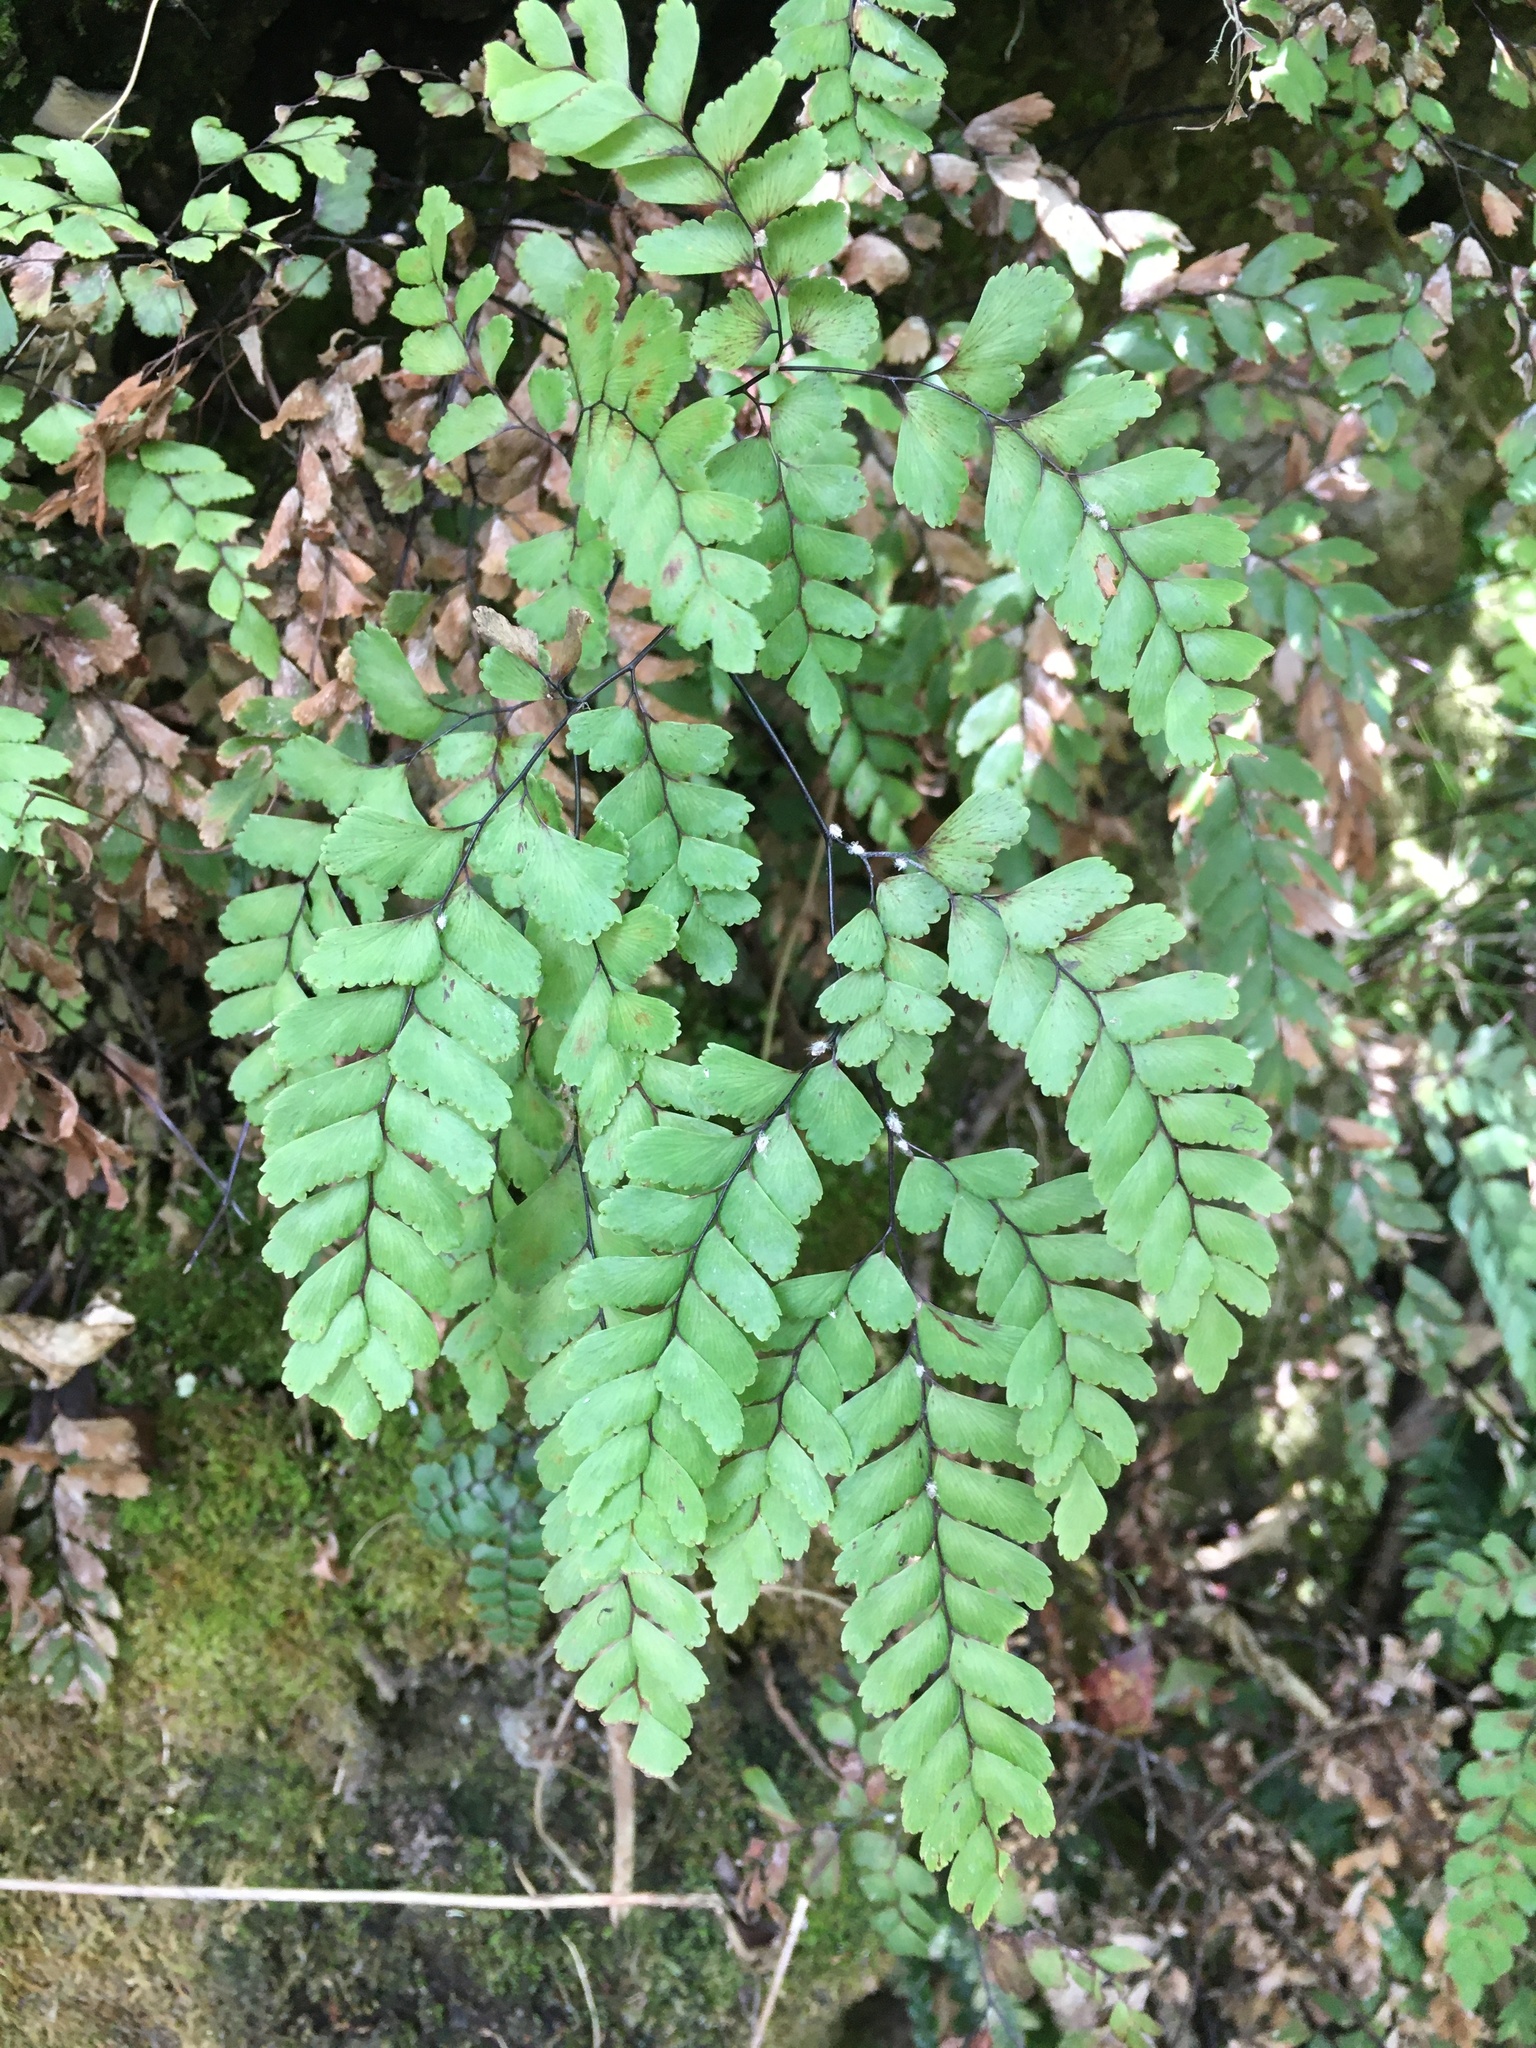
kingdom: Plantae
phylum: Tracheophyta
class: Polypodiopsida
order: Polypodiales
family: Pteridaceae
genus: Adiantum
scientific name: Adiantum cunninghamii
